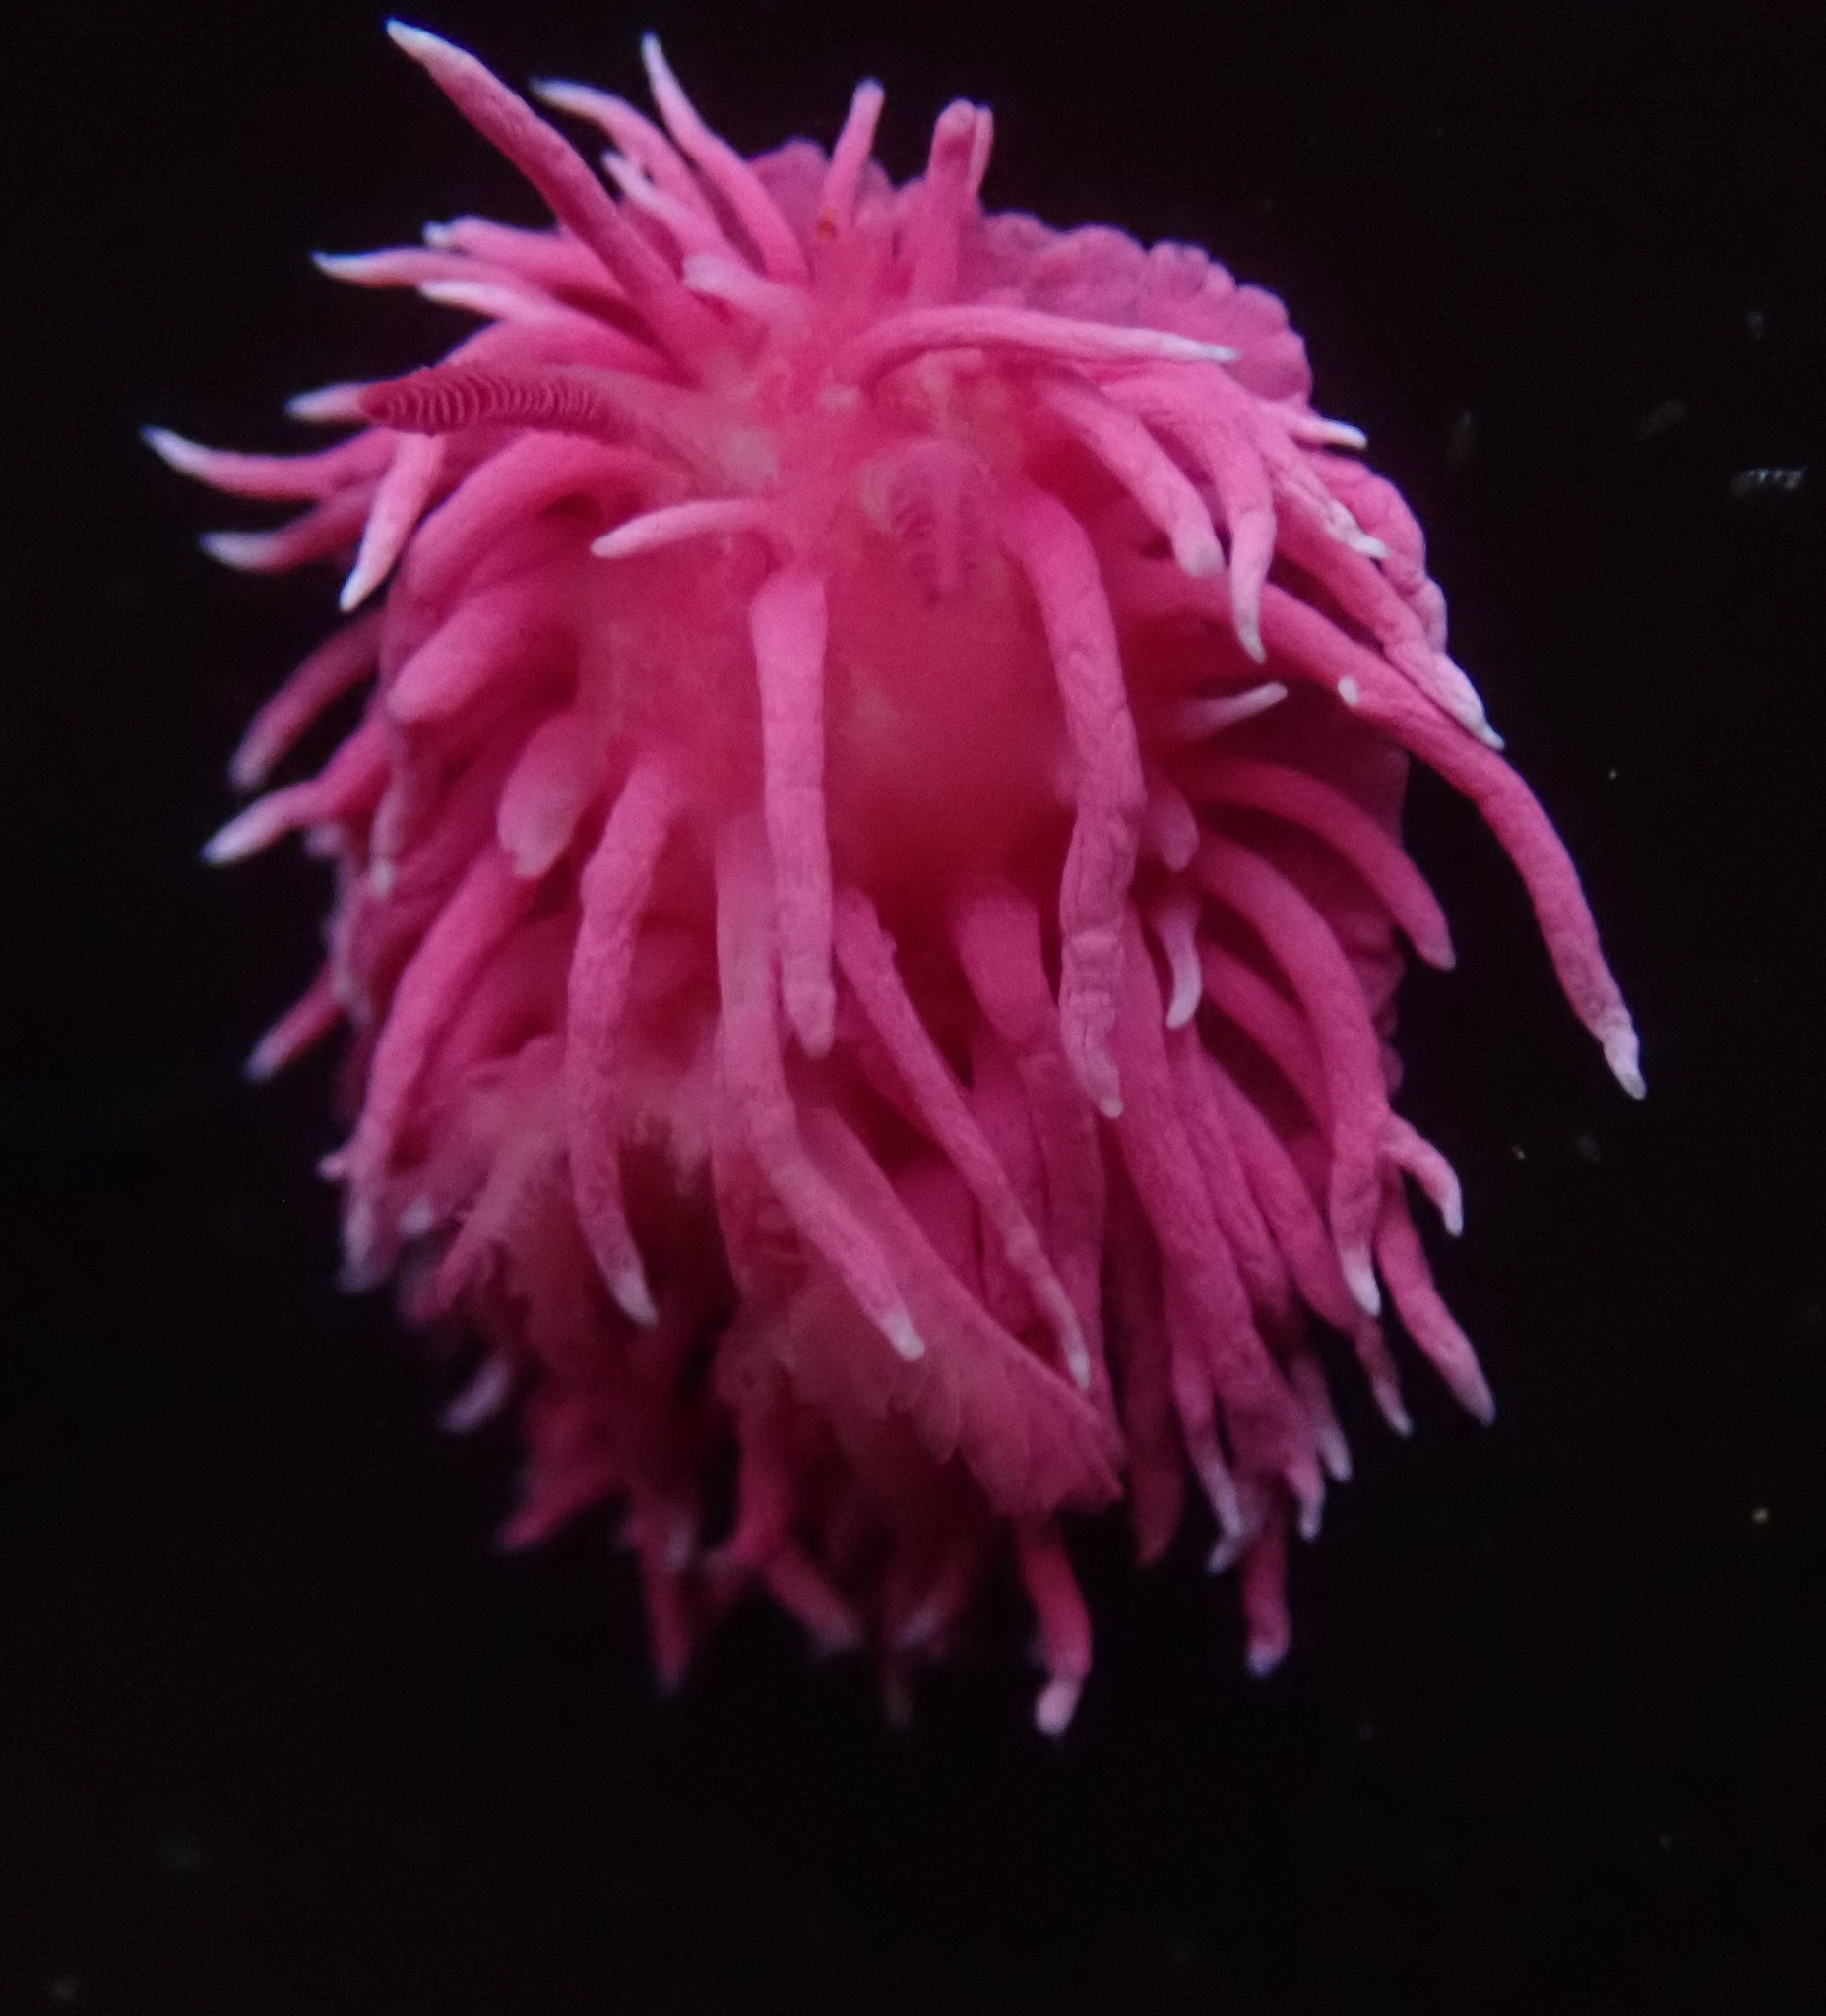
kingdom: Animalia
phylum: Mollusca
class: Gastropoda
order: Nudibranchia
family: Goniodorididae
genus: Okenia
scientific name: Okenia
